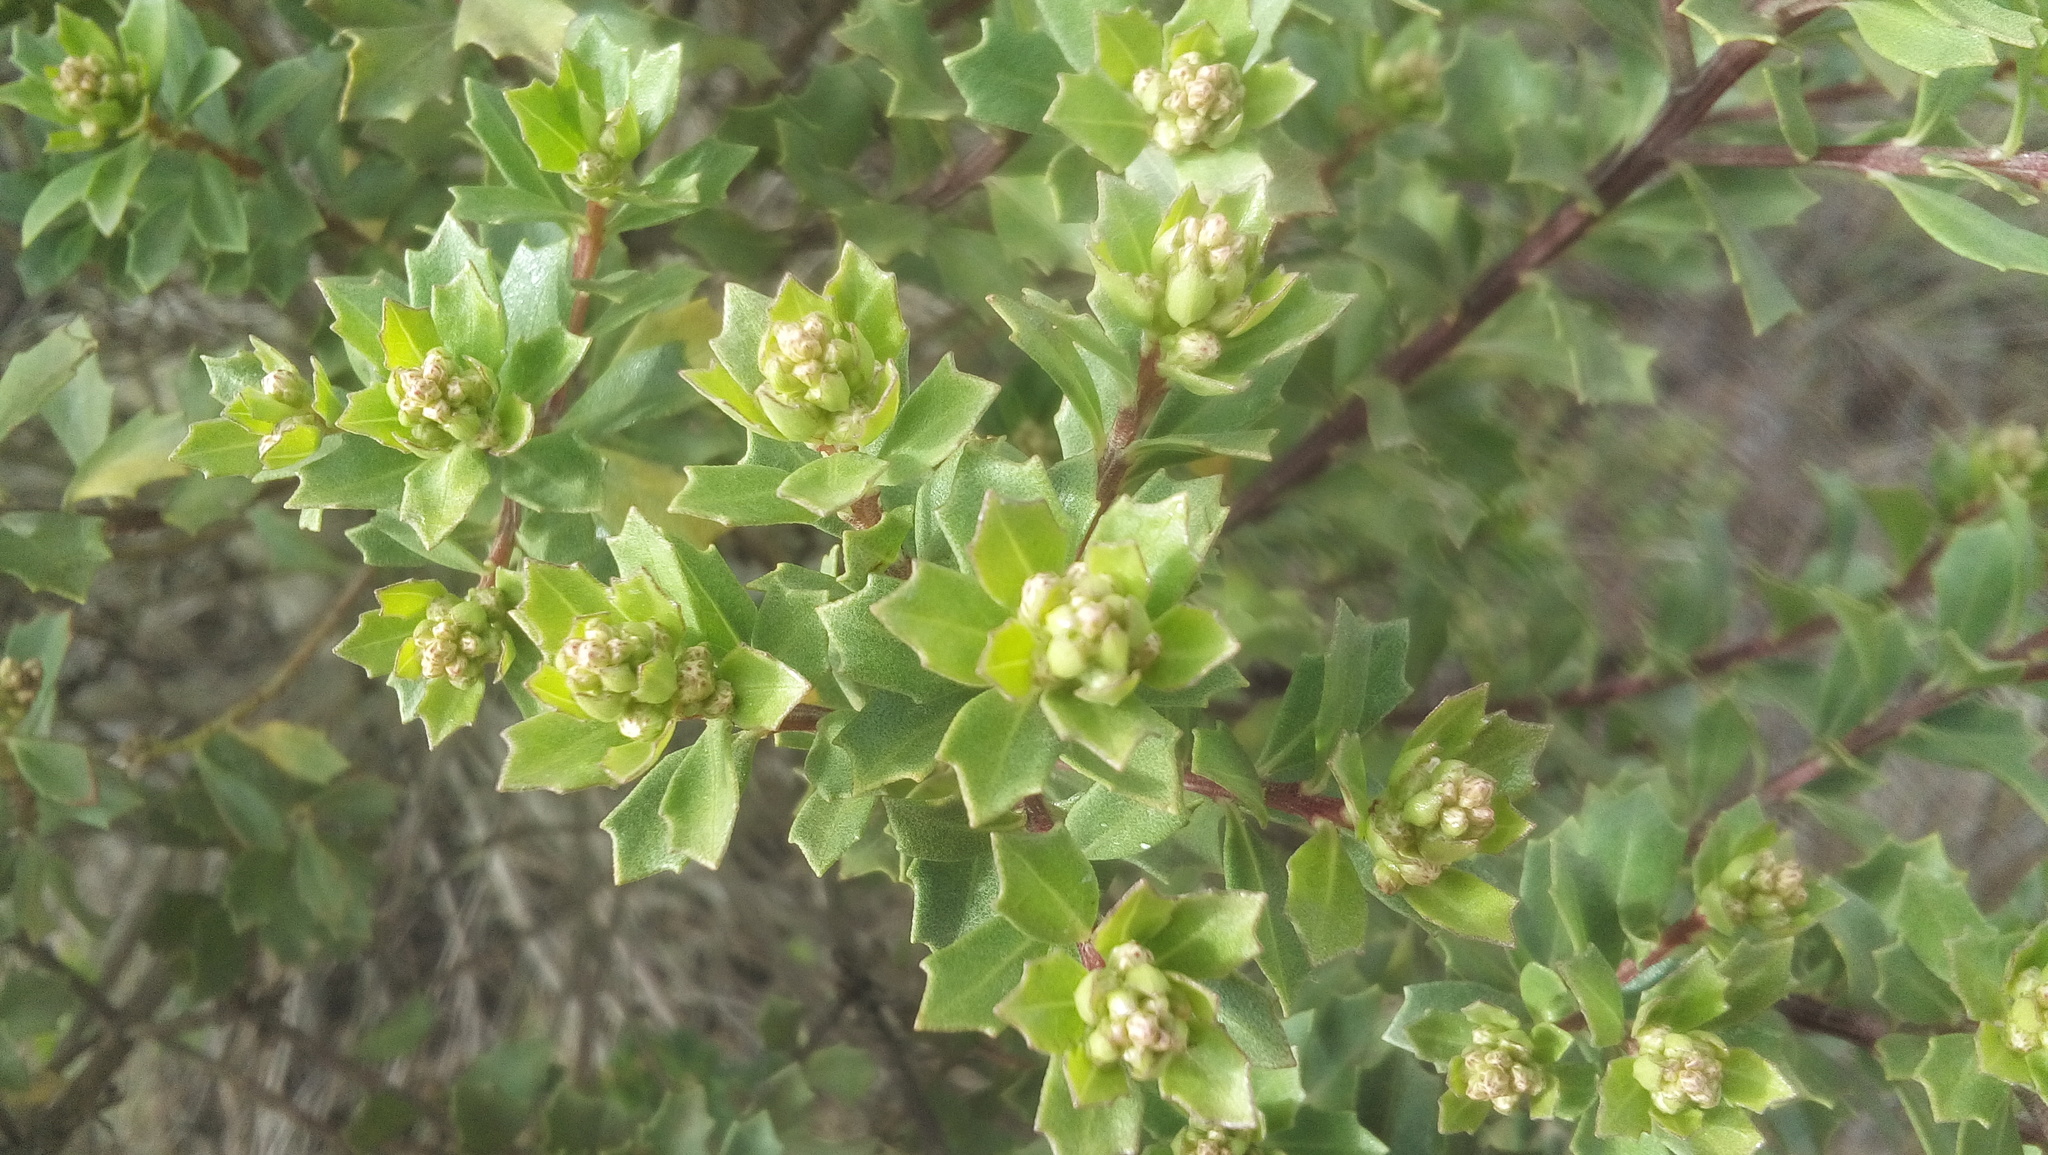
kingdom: Plantae
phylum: Tracheophyta
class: Magnoliopsida
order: Asterales
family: Asteraceae
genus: Baccharis
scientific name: Baccharis conferta
